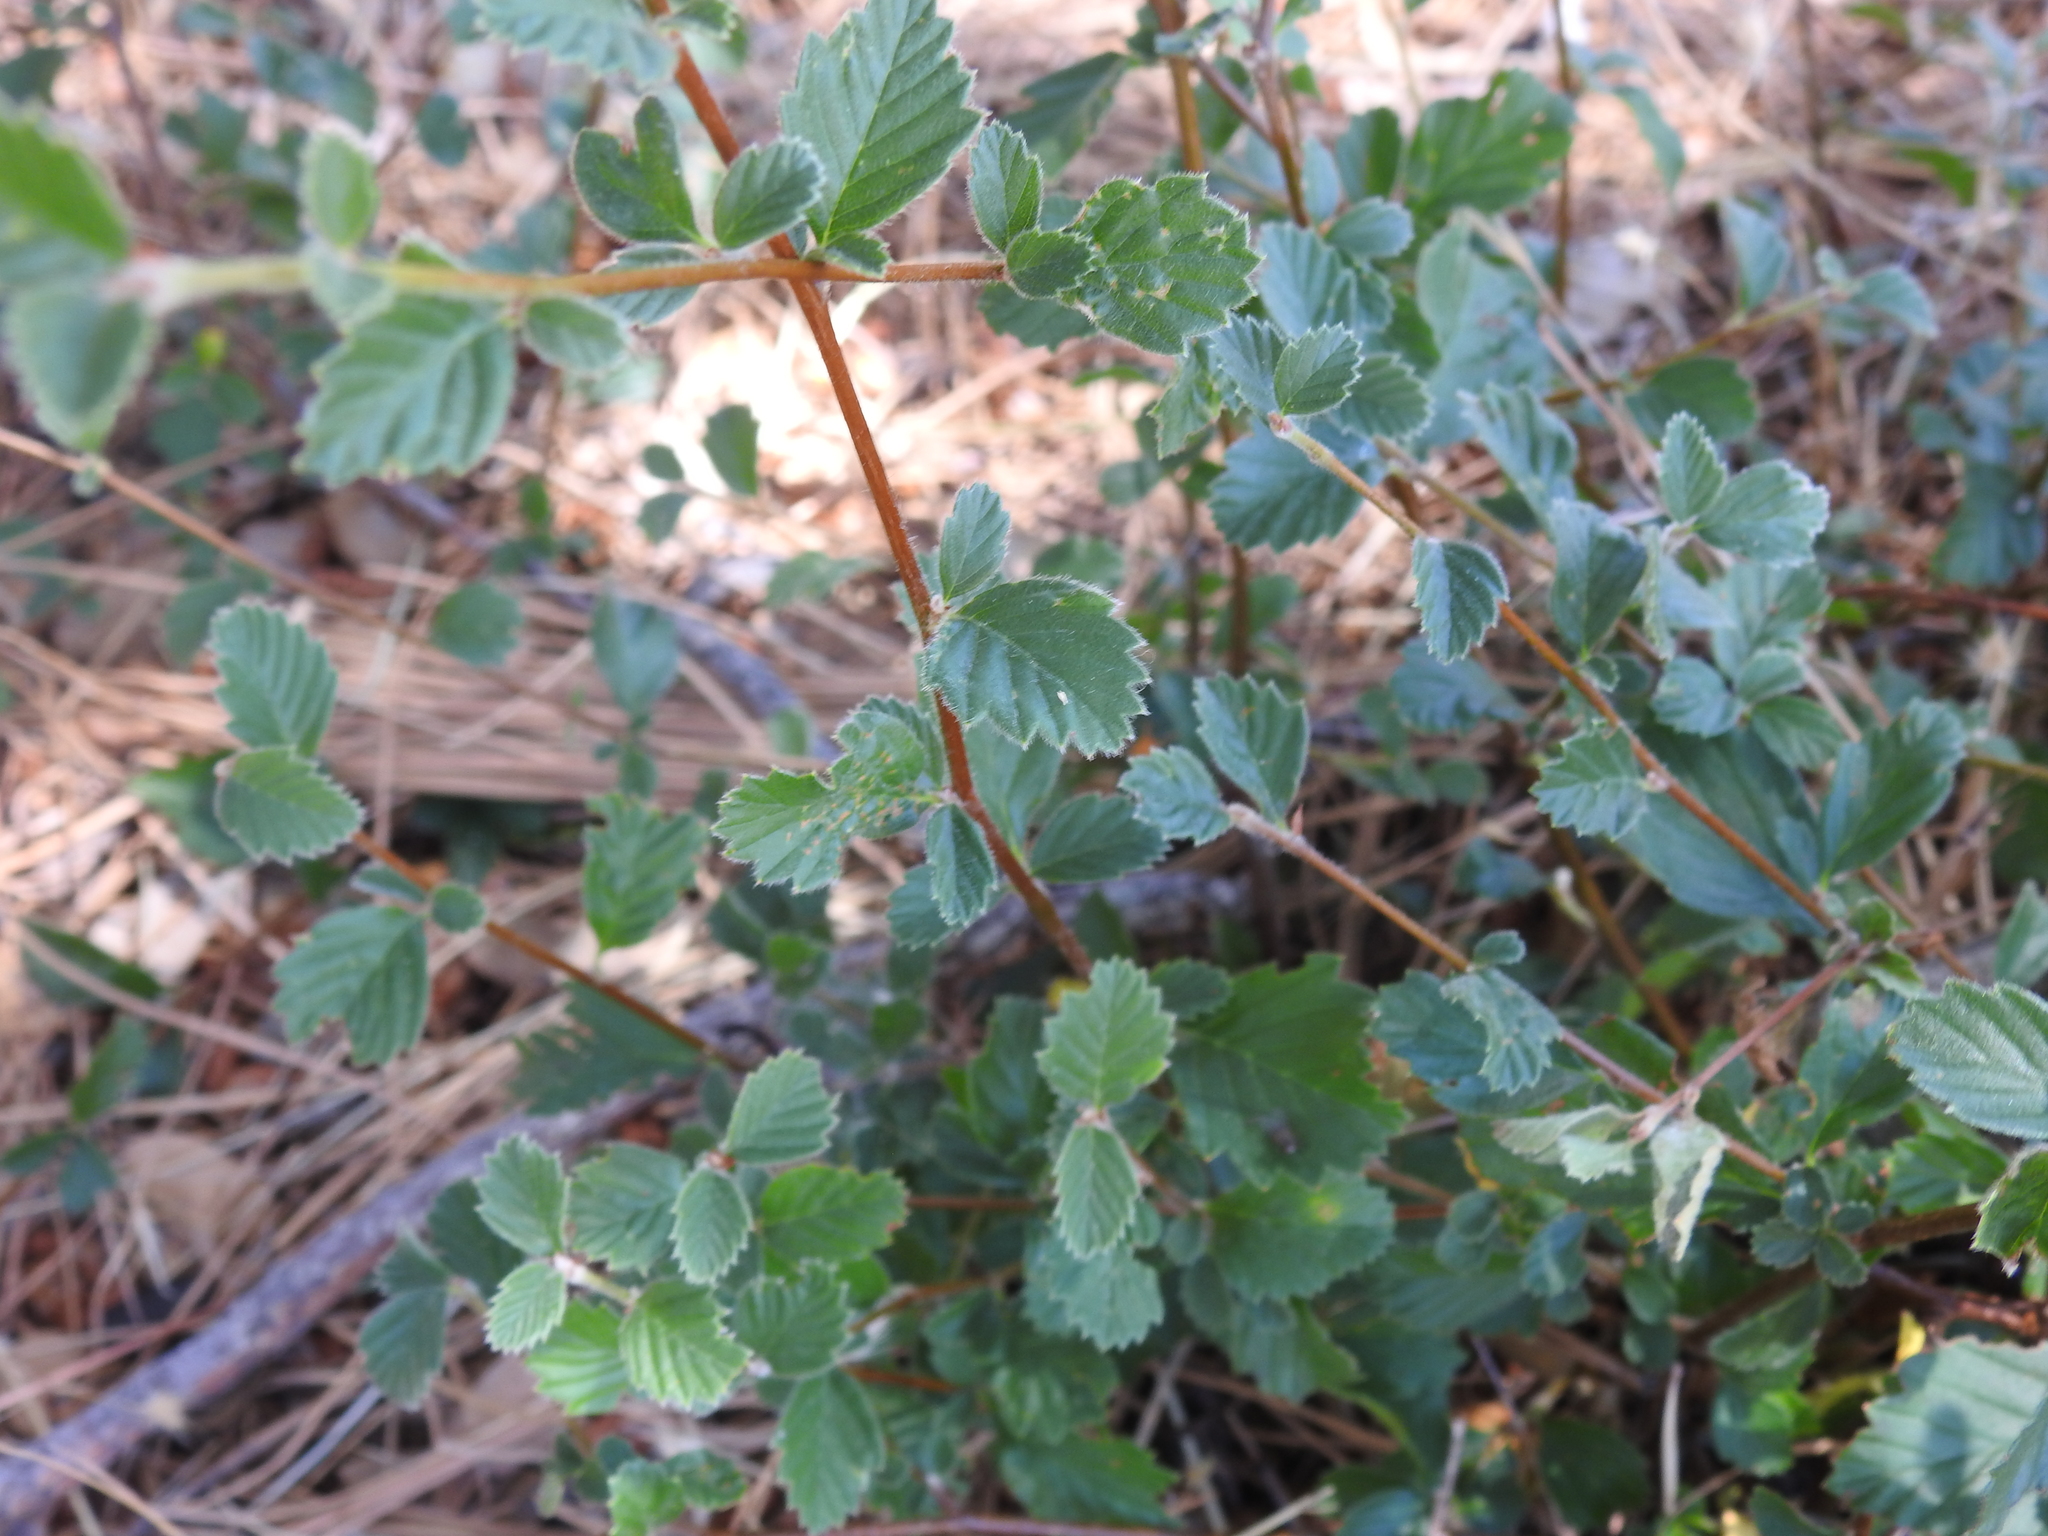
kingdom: Plantae
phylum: Tracheophyta
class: Magnoliopsida
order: Rosales
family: Rosaceae
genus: Cercocarpus
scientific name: Cercocarpus betuloides
